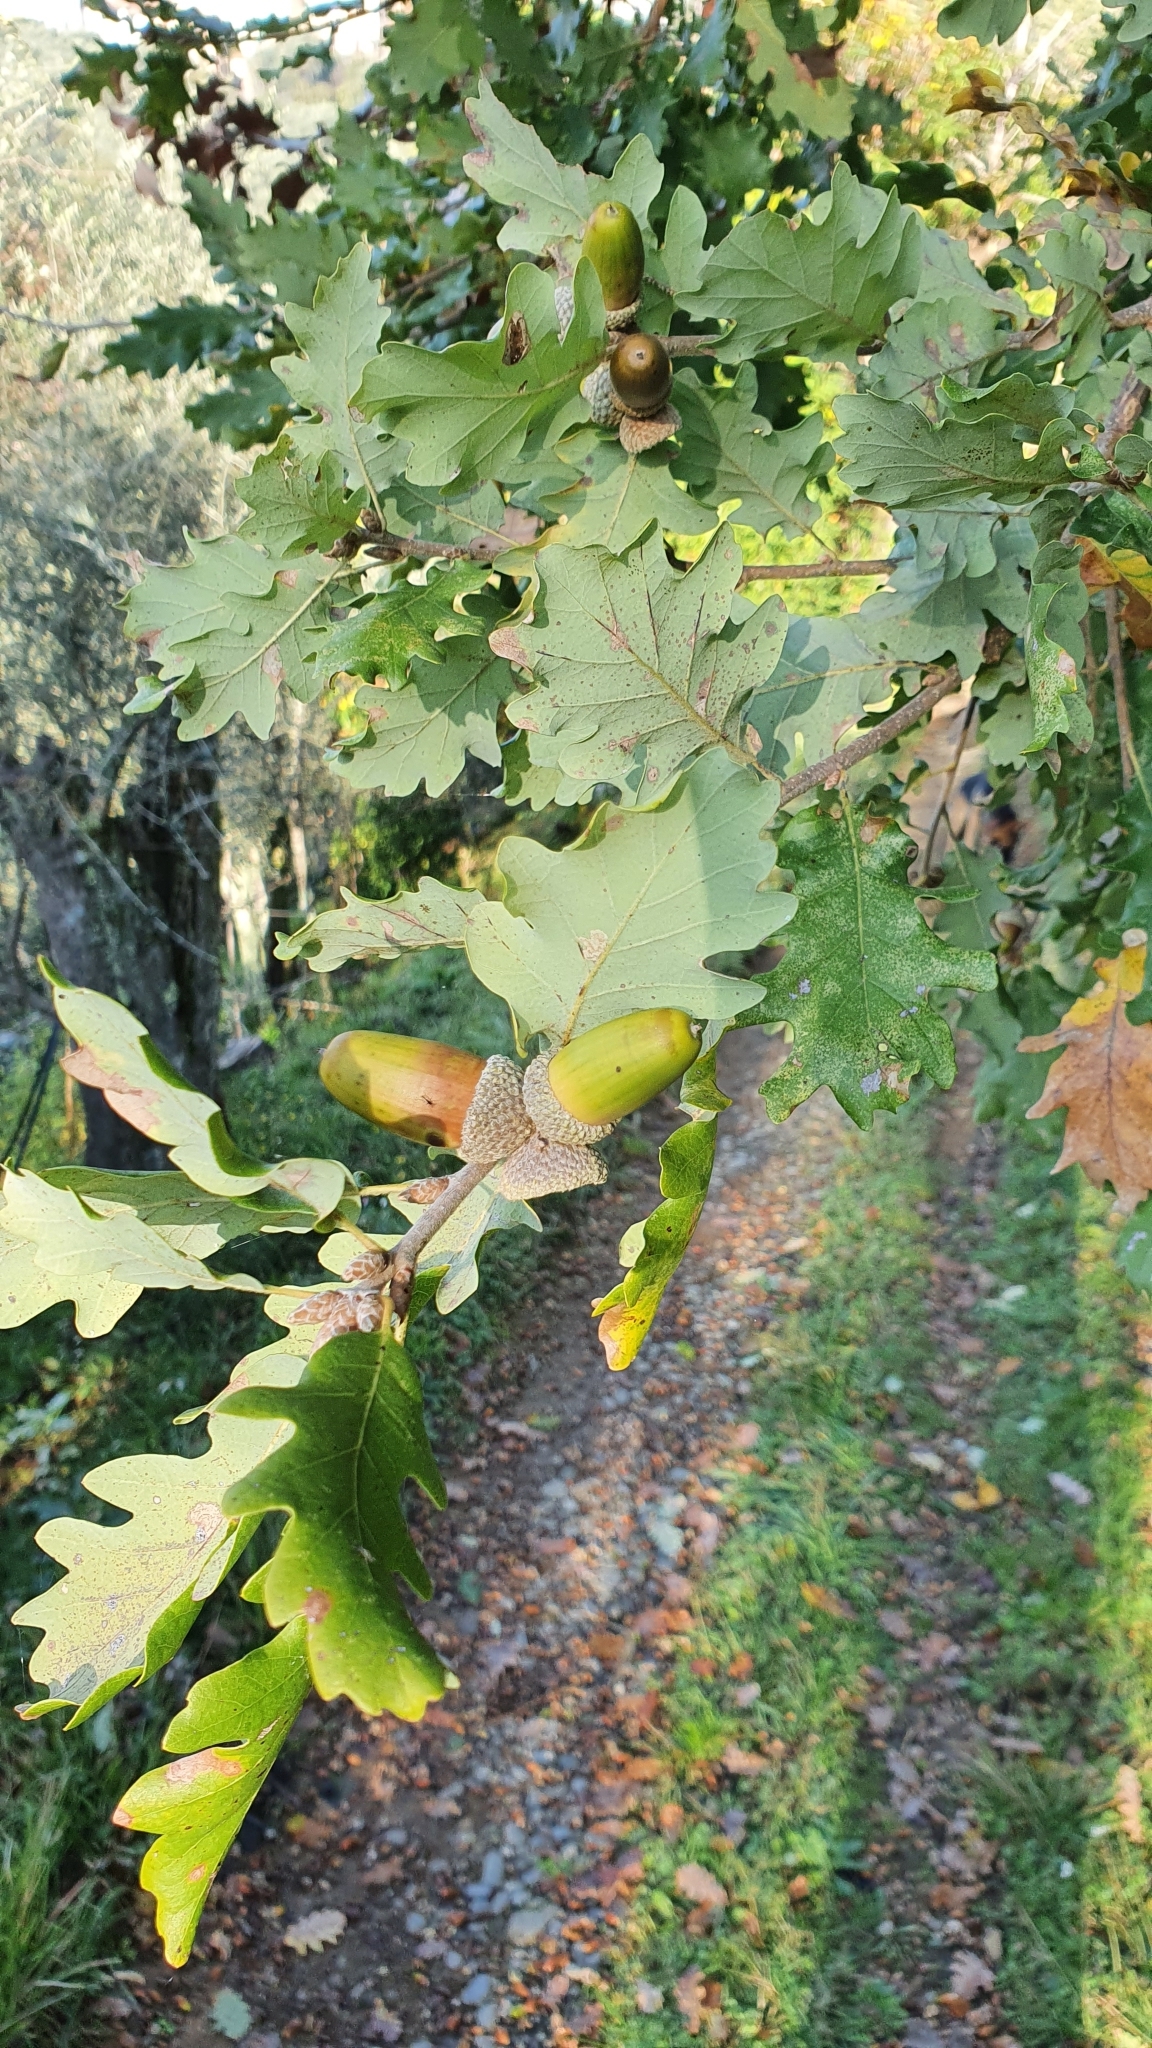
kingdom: Plantae
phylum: Tracheophyta
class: Magnoliopsida
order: Fagales
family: Fagaceae
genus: Quercus
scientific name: Quercus robur
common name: Pedunculate oak
